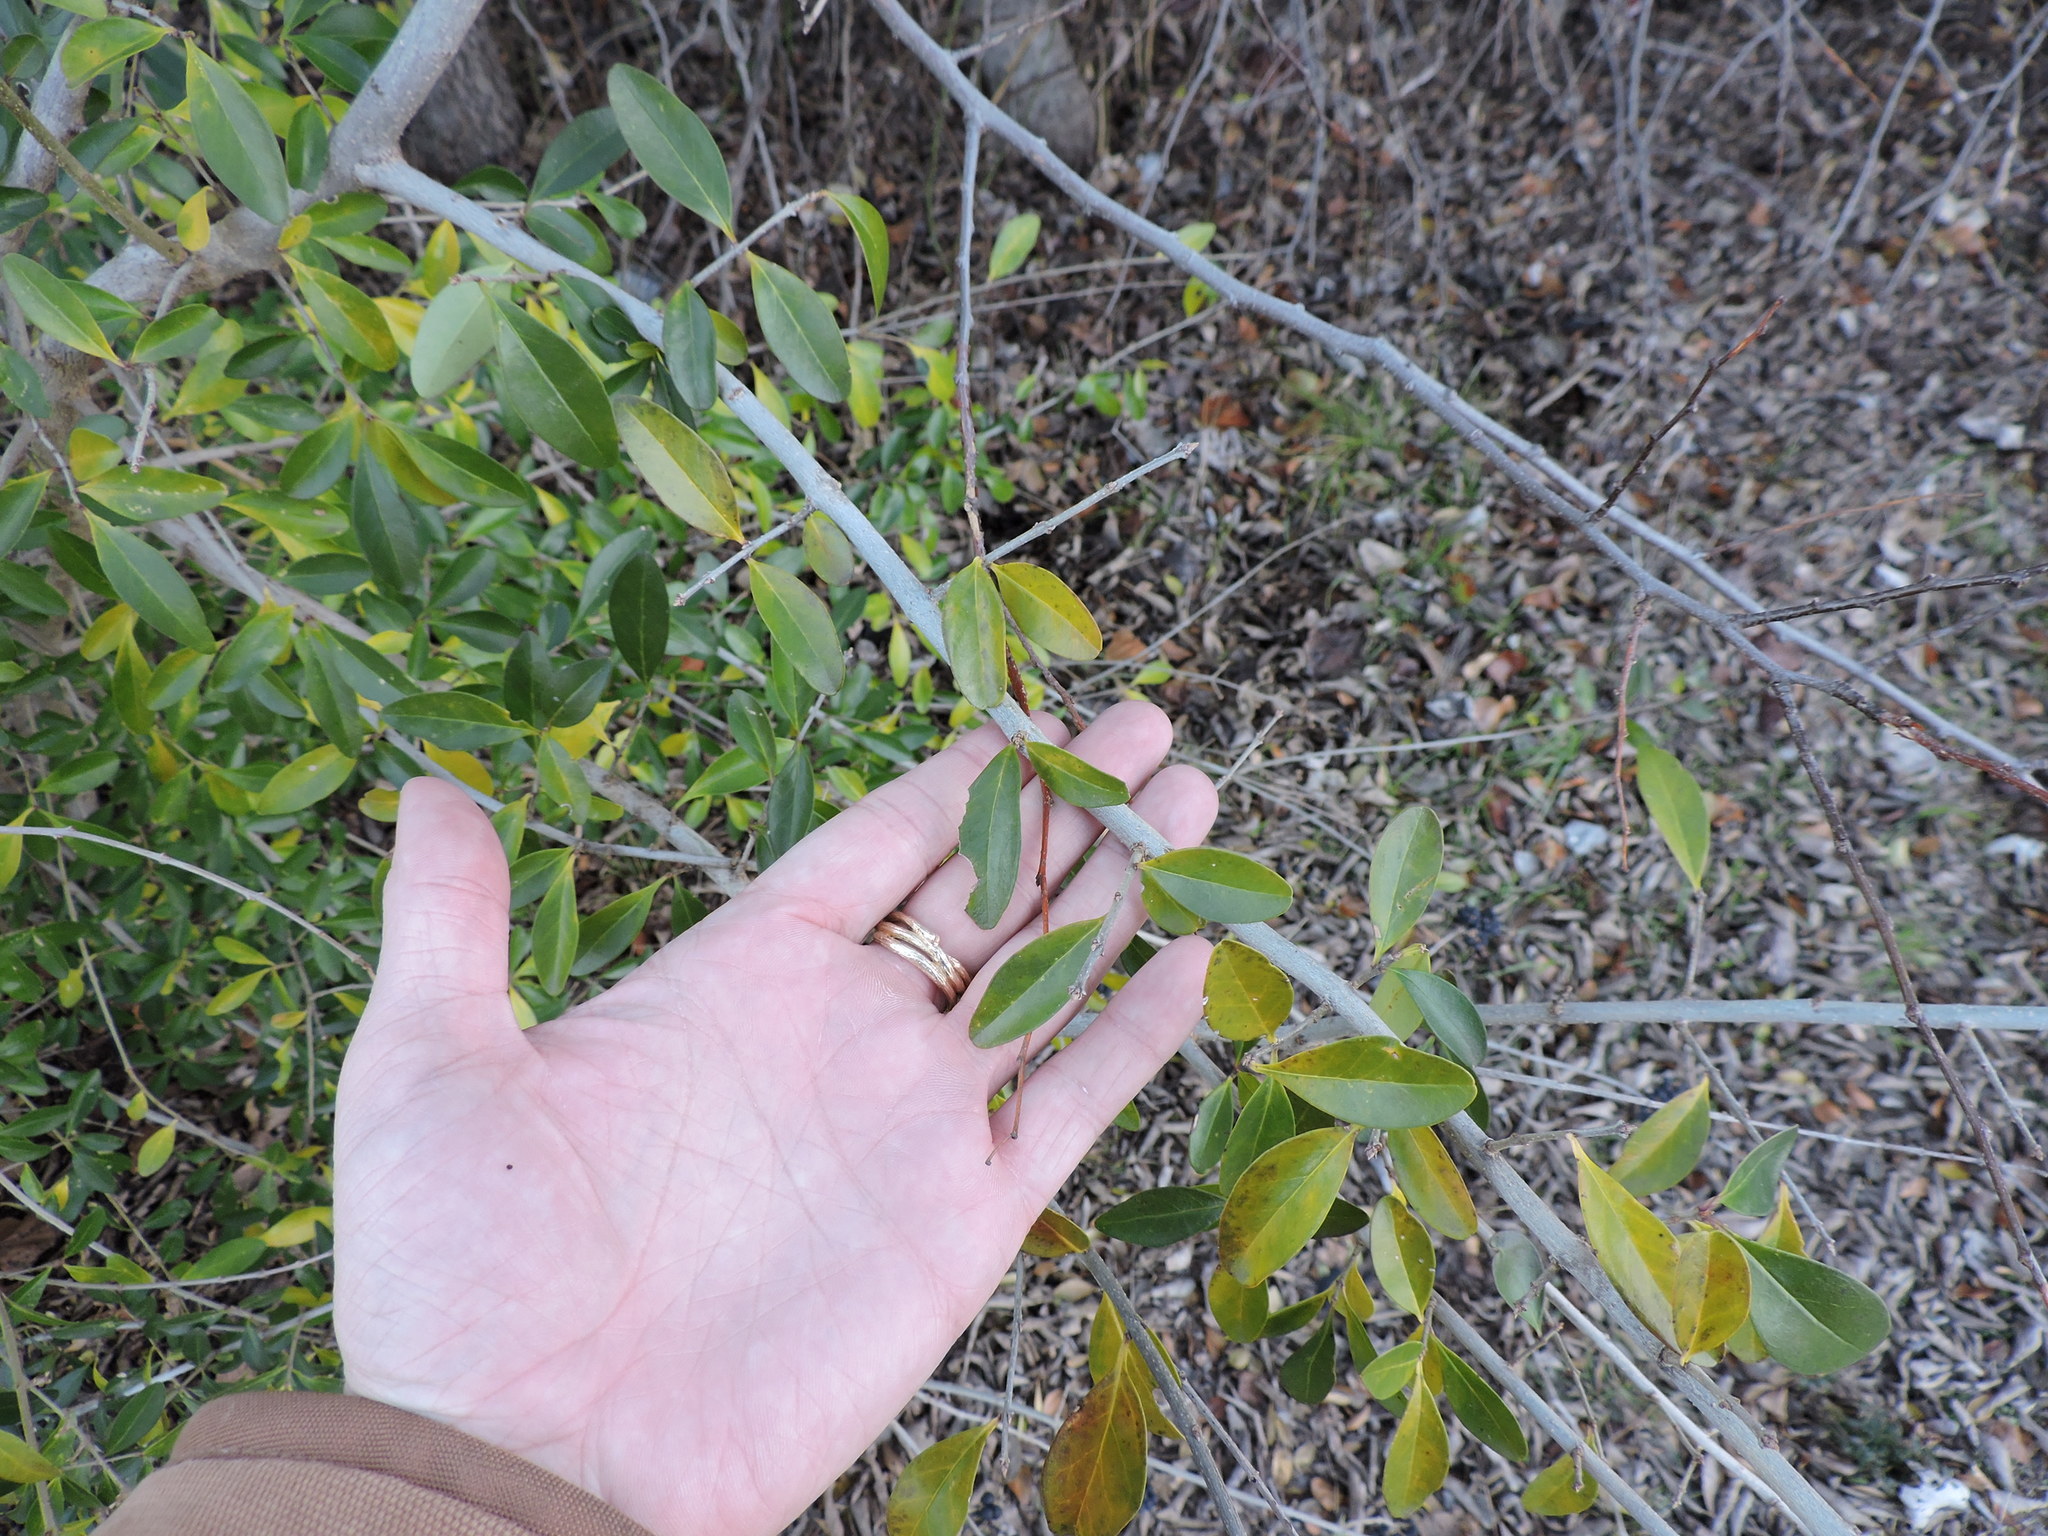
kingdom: Plantae
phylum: Tracheophyta
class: Magnoliopsida
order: Lamiales
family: Oleaceae
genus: Ligustrum
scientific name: Ligustrum quihoui
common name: Waxyleaf privet
